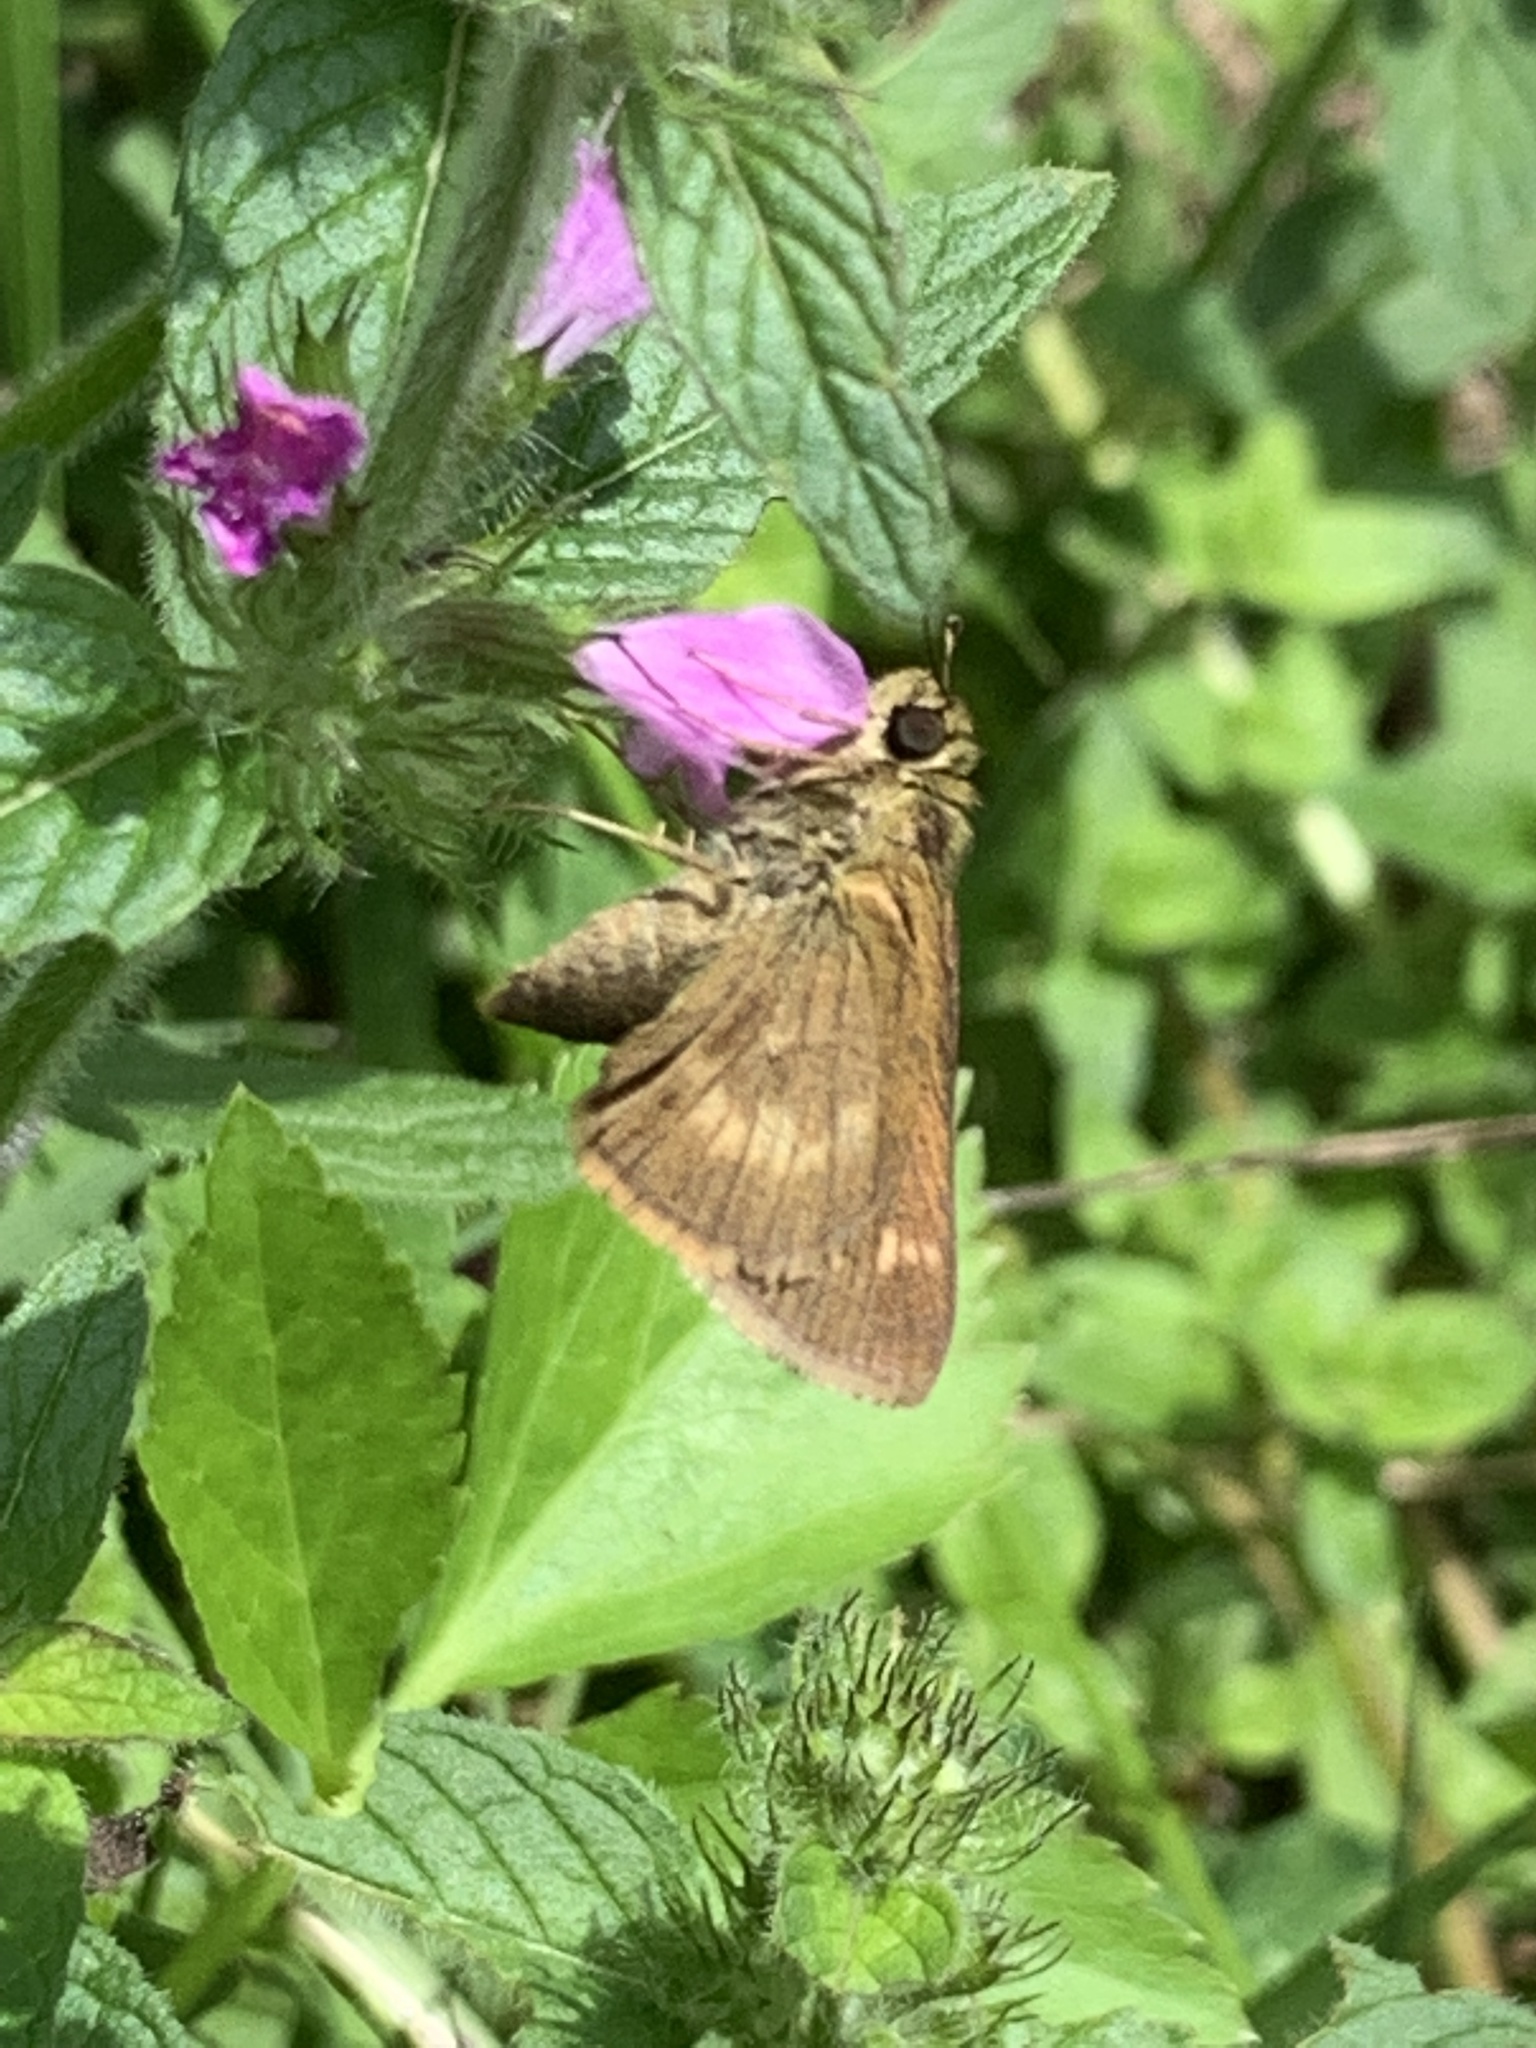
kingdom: Animalia
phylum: Arthropoda
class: Insecta
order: Lepidoptera
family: Hesperiidae
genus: Polites
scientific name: Polites egeremet
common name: Northern broken-dash
